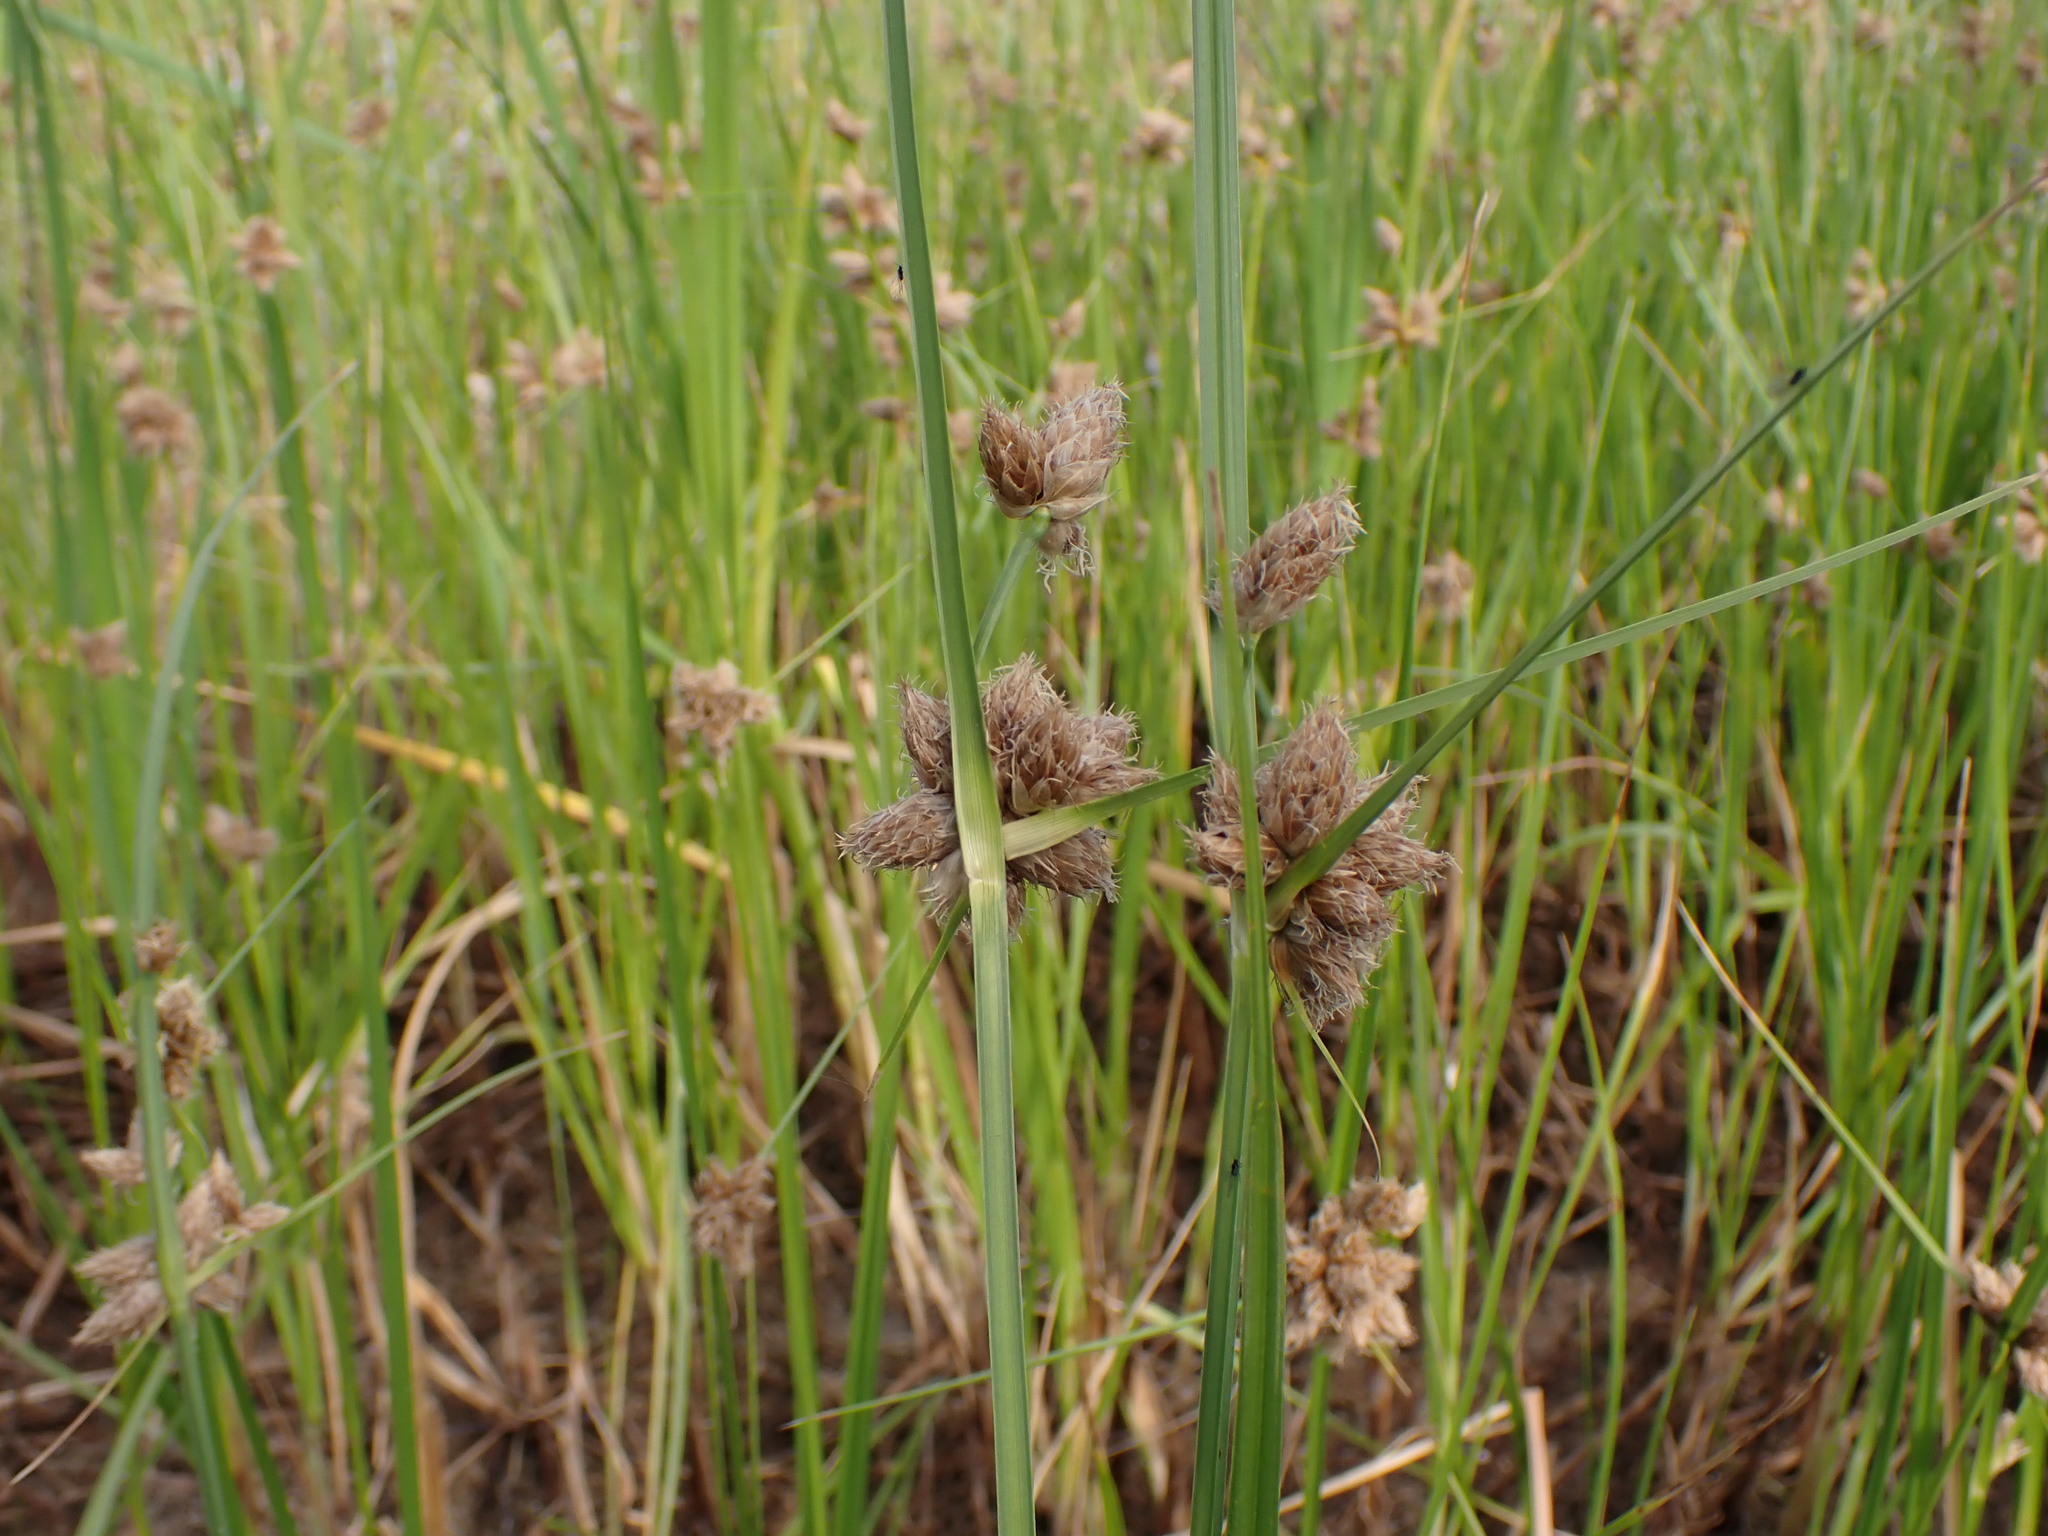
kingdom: Plantae
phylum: Tracheophyta
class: Liliopsida
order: Poales
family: Cyperaceae
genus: Bolboschoenus
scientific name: Bolboschoenus maritimus
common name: Sea club-rush
